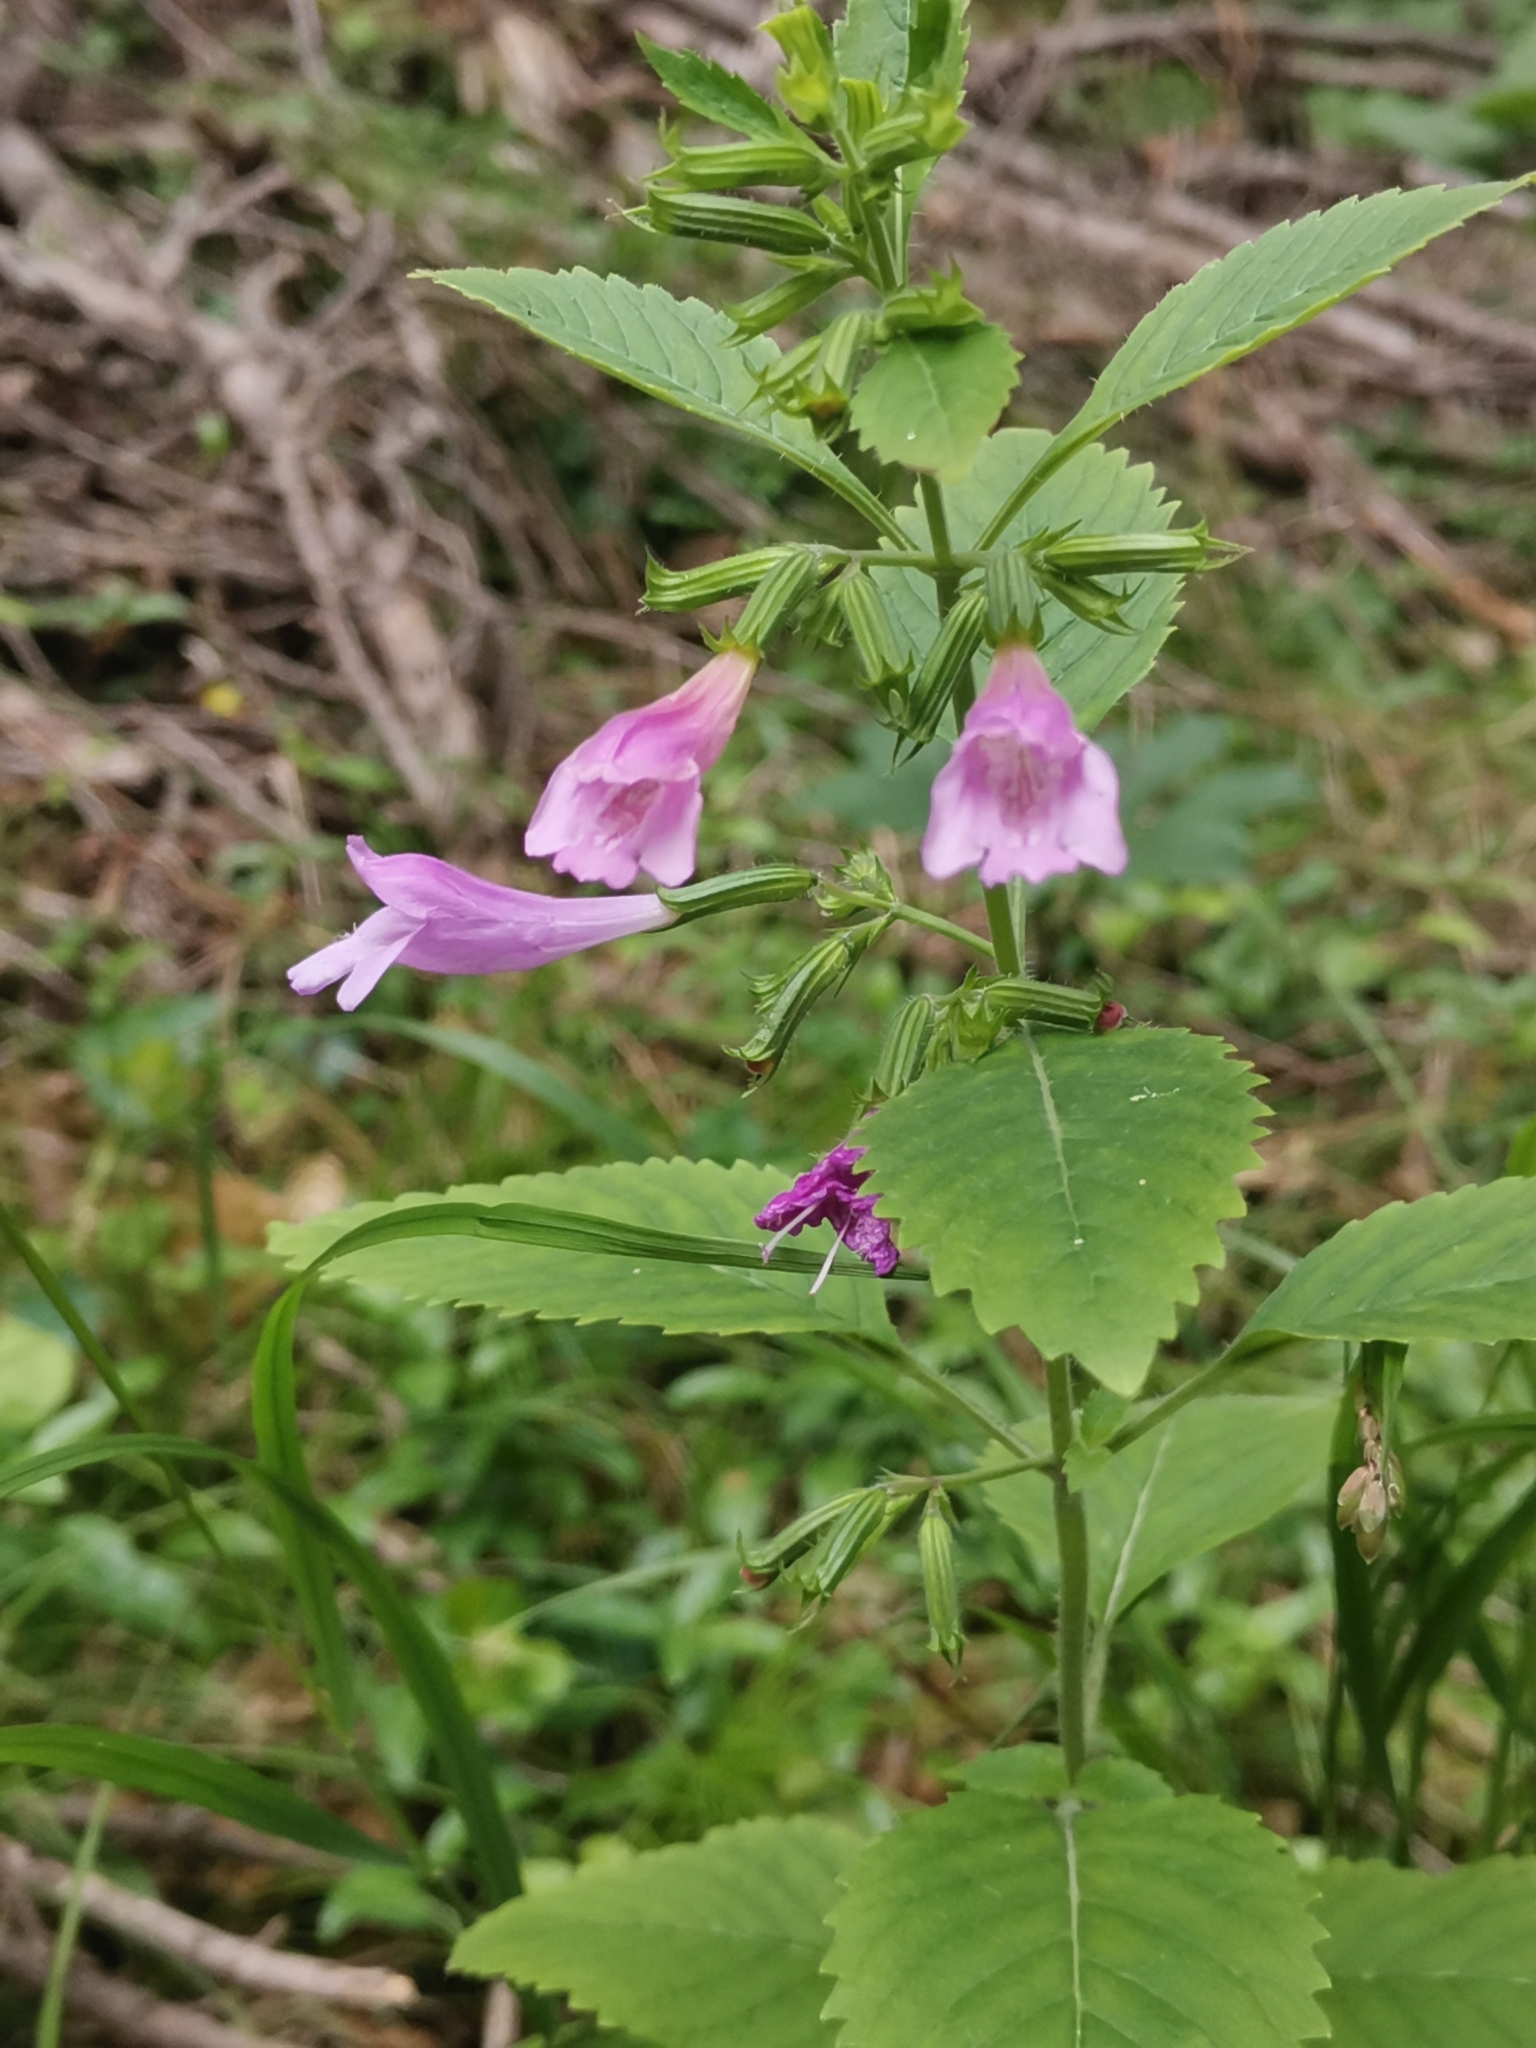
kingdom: Plantae
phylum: Tracheophyta
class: Magnoliopsida
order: Lamiales
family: Lamiaceae
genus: Clinopodium
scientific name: Clinopodium grandiflorum
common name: Greater calamint
